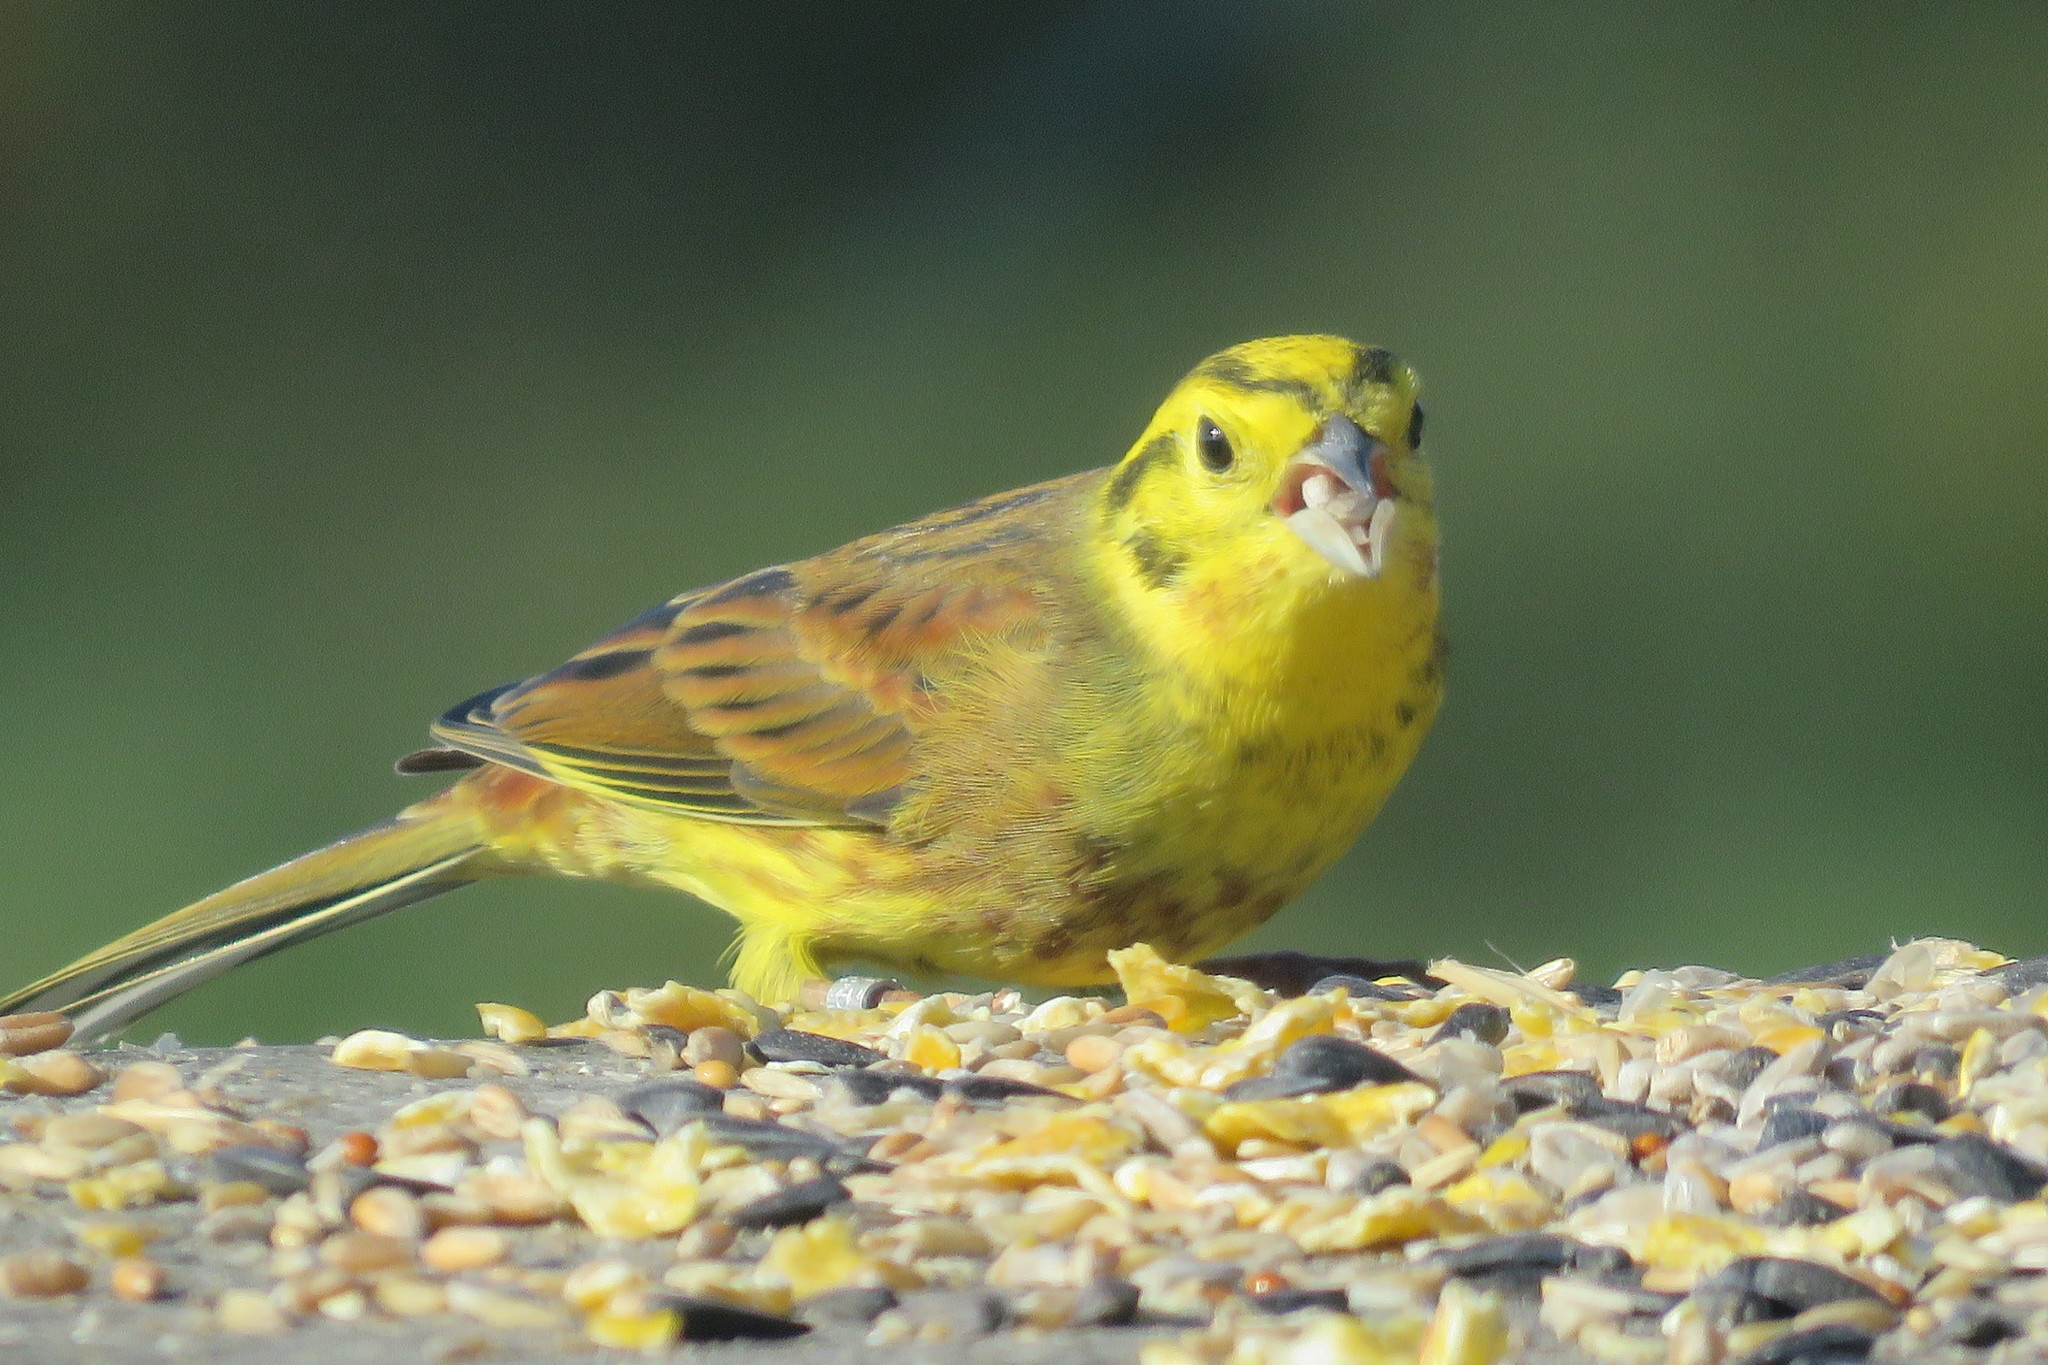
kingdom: Animalia
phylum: Chordata
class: Aves
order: Passeriformes
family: Emberizidae
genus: Emberiza
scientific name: Emberiza citrinella
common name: Yellowhammer
